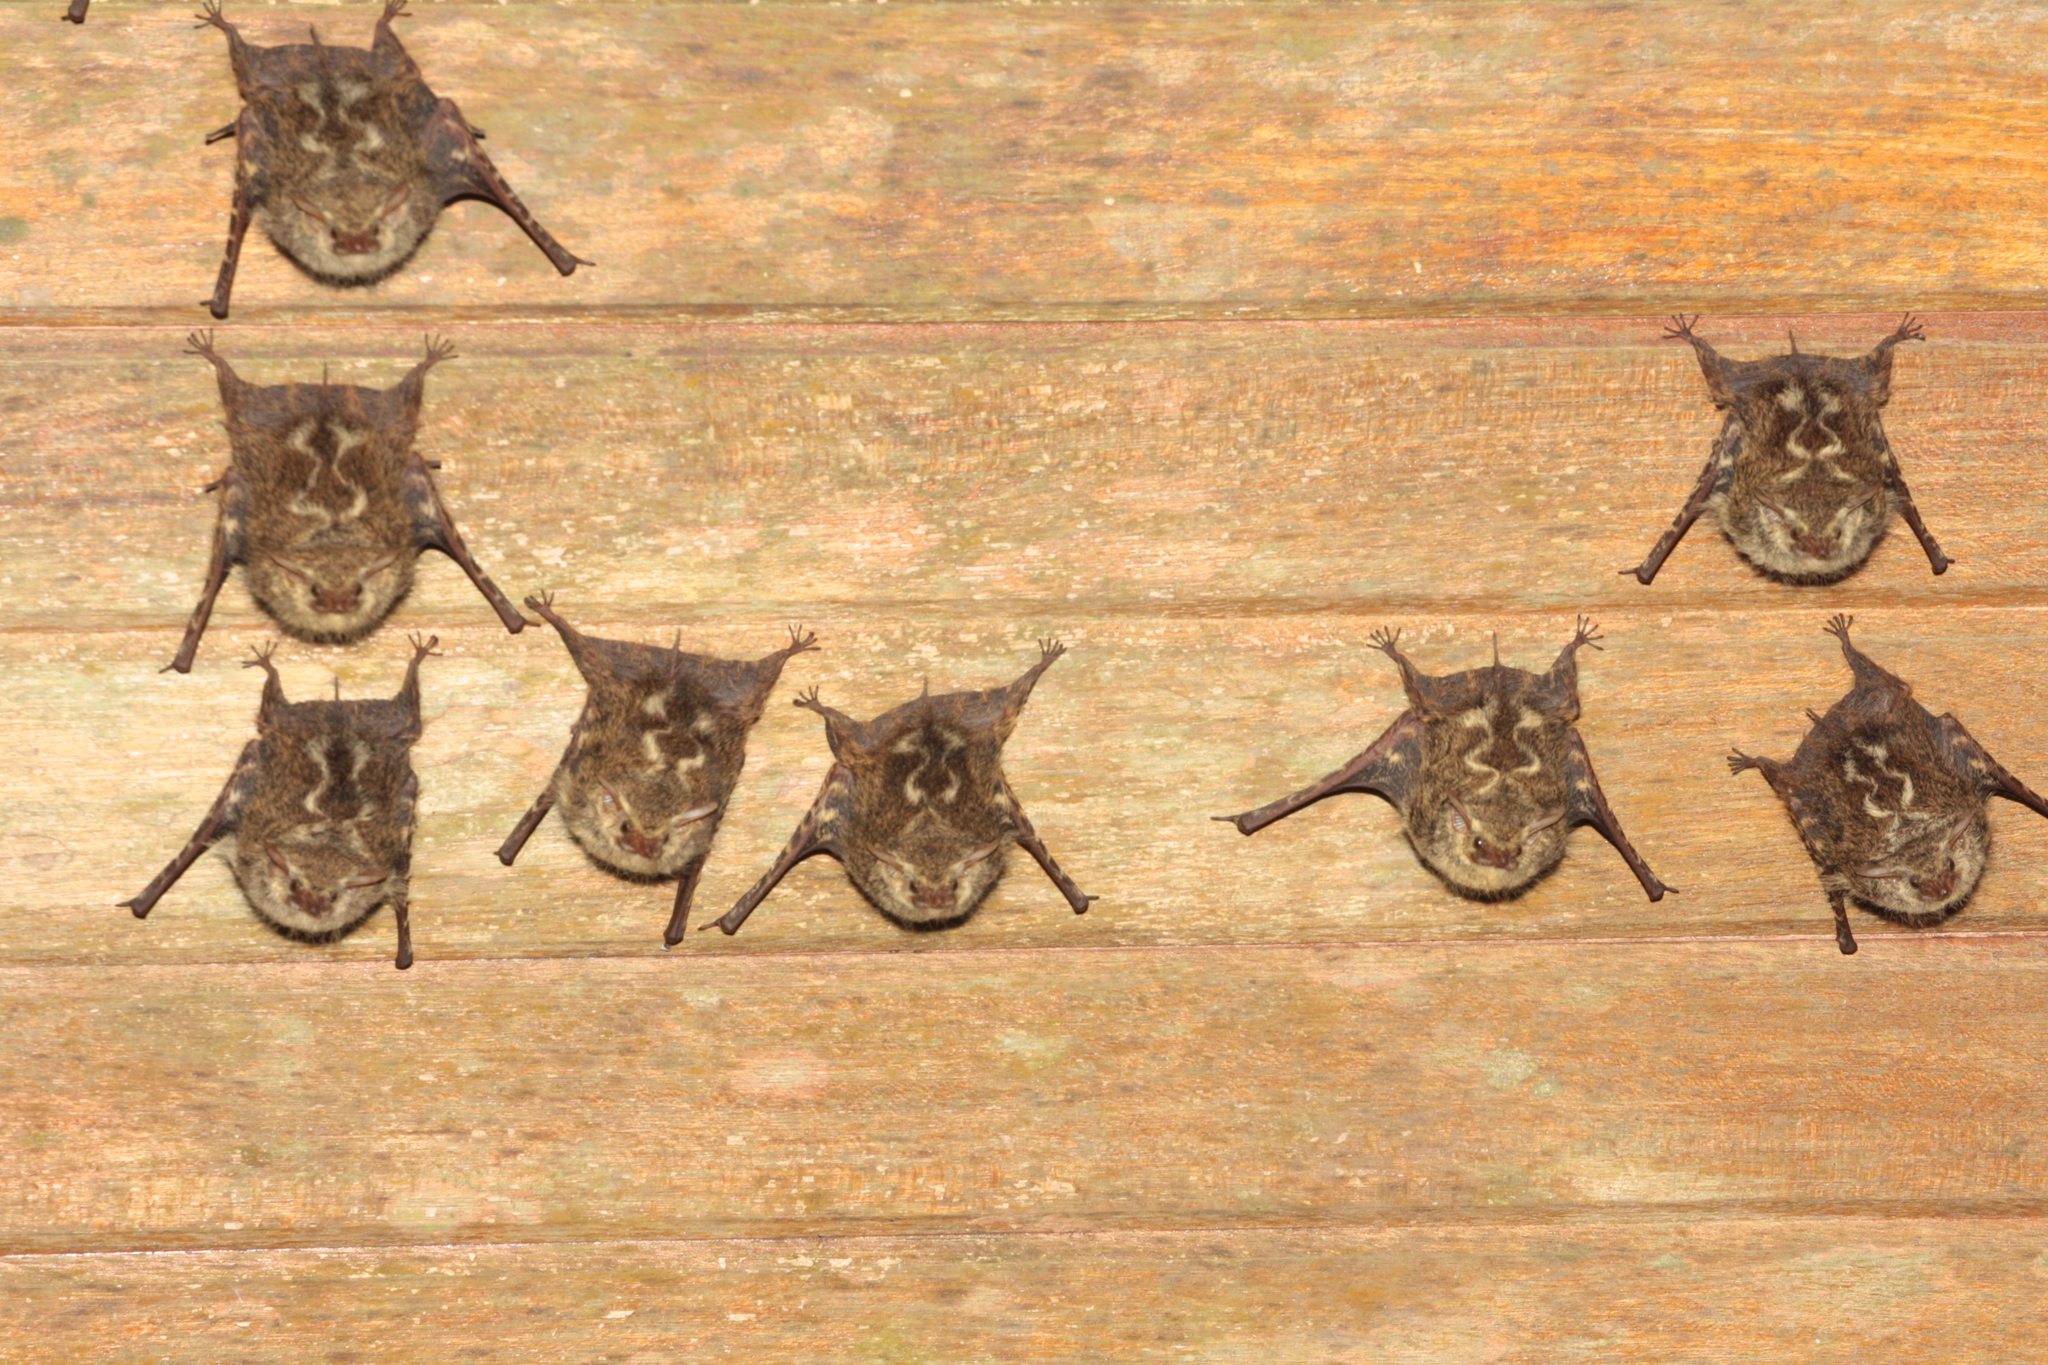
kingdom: Animalia
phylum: Chordata
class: Mammalia
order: Chiroptera
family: Emballonuridae
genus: Rhynchonycteris
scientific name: Rhynchonycteris naso
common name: Proboscis bat
